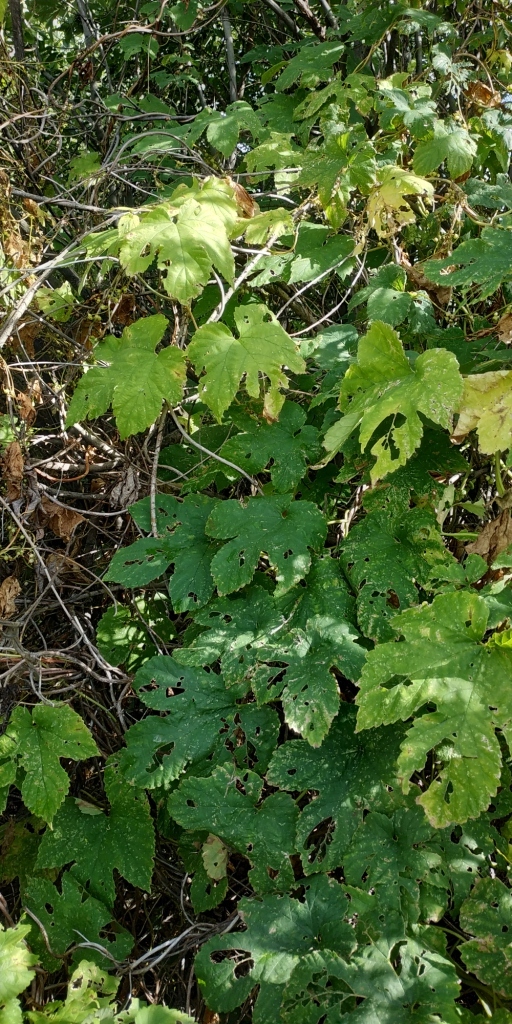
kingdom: Plantae
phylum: Tracheophyta
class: Magnoliopsida
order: Rosales
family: Cannabaceae
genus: Humulus
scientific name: Humulus lupulus
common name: Hop
